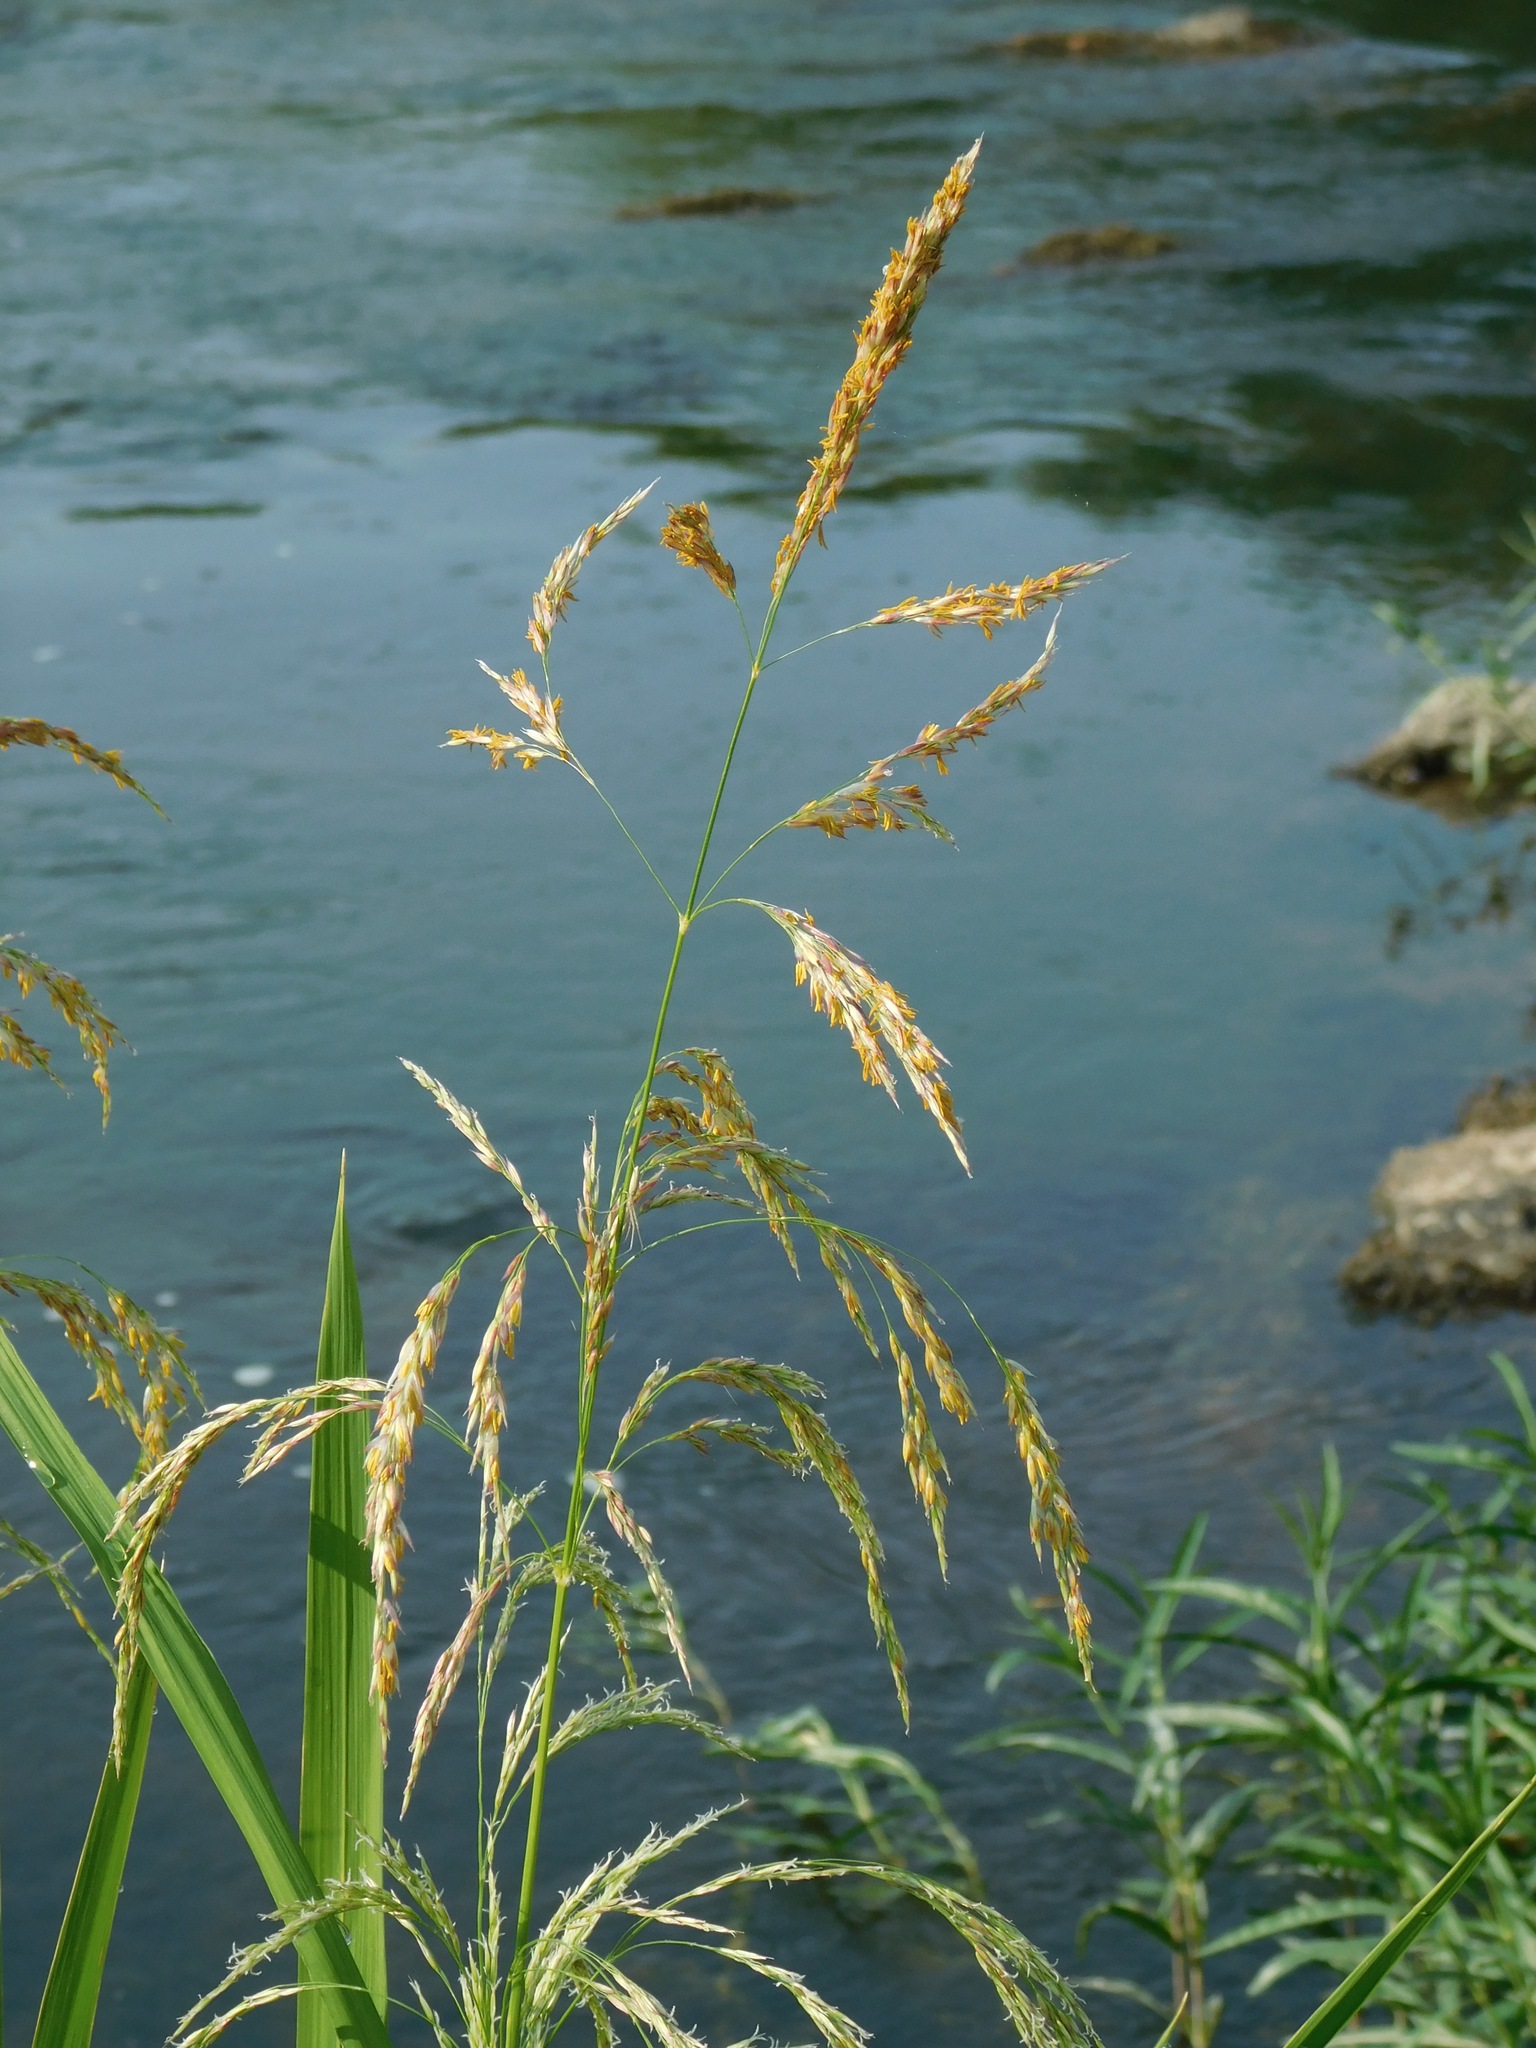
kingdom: Plantae
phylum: Tracheophyta
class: Liliopsida
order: Poales
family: Poaceae
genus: Zizaniopsis
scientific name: Zizaniopsis miliacea
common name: Giant-cutgrass
